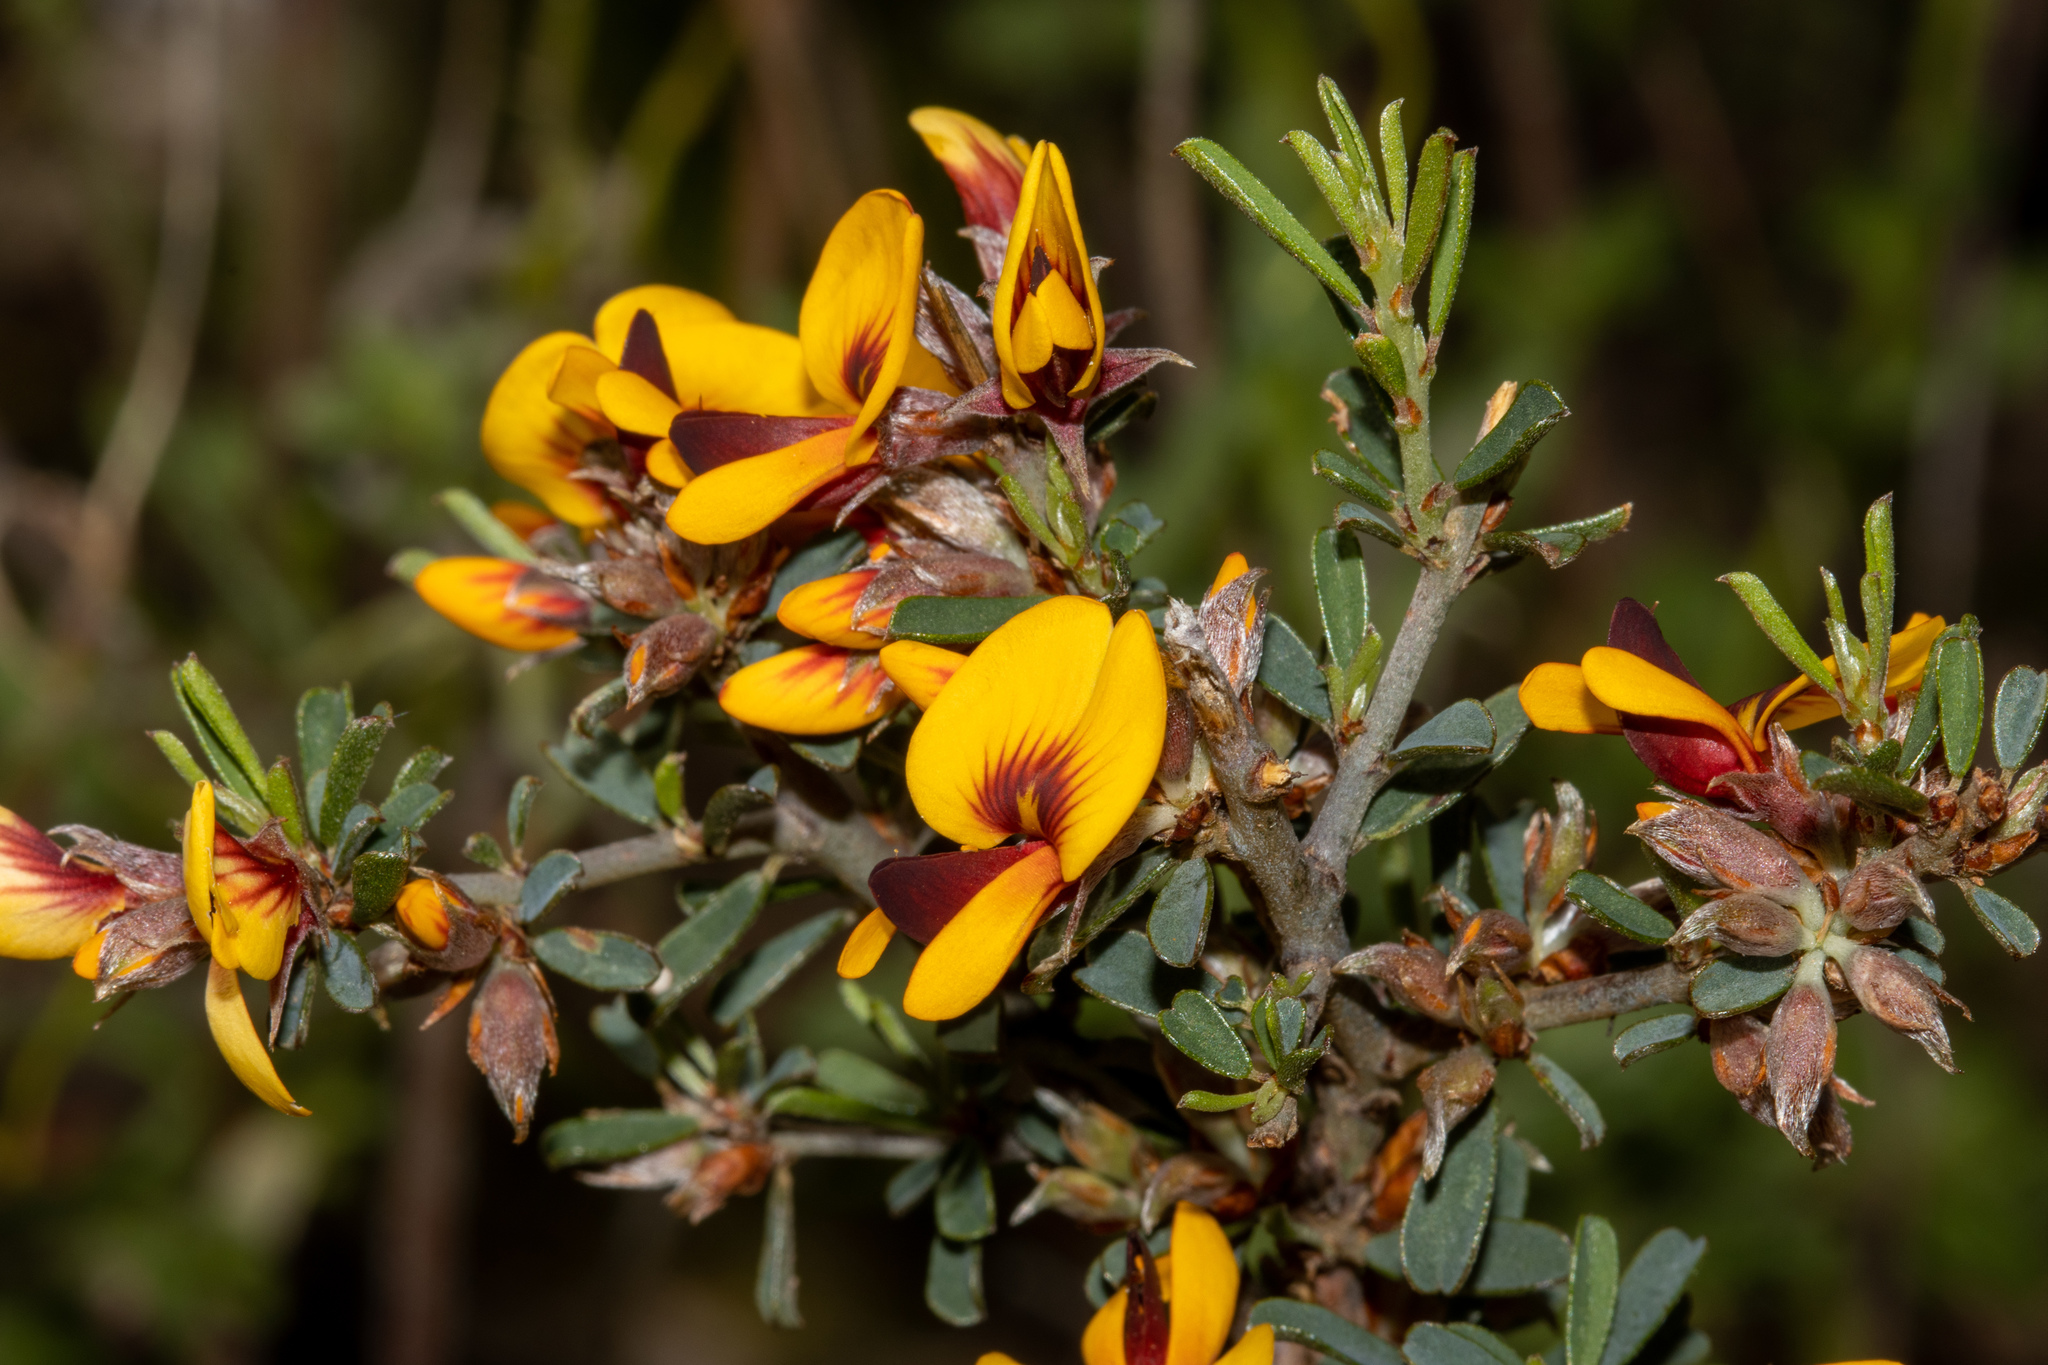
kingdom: Plantae
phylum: Tracheophyta
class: Magnoliopsida
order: Fabales
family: Fabaceae
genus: Pultenaea
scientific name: Pultenaea largiflorens
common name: Twiggy bush-pea
